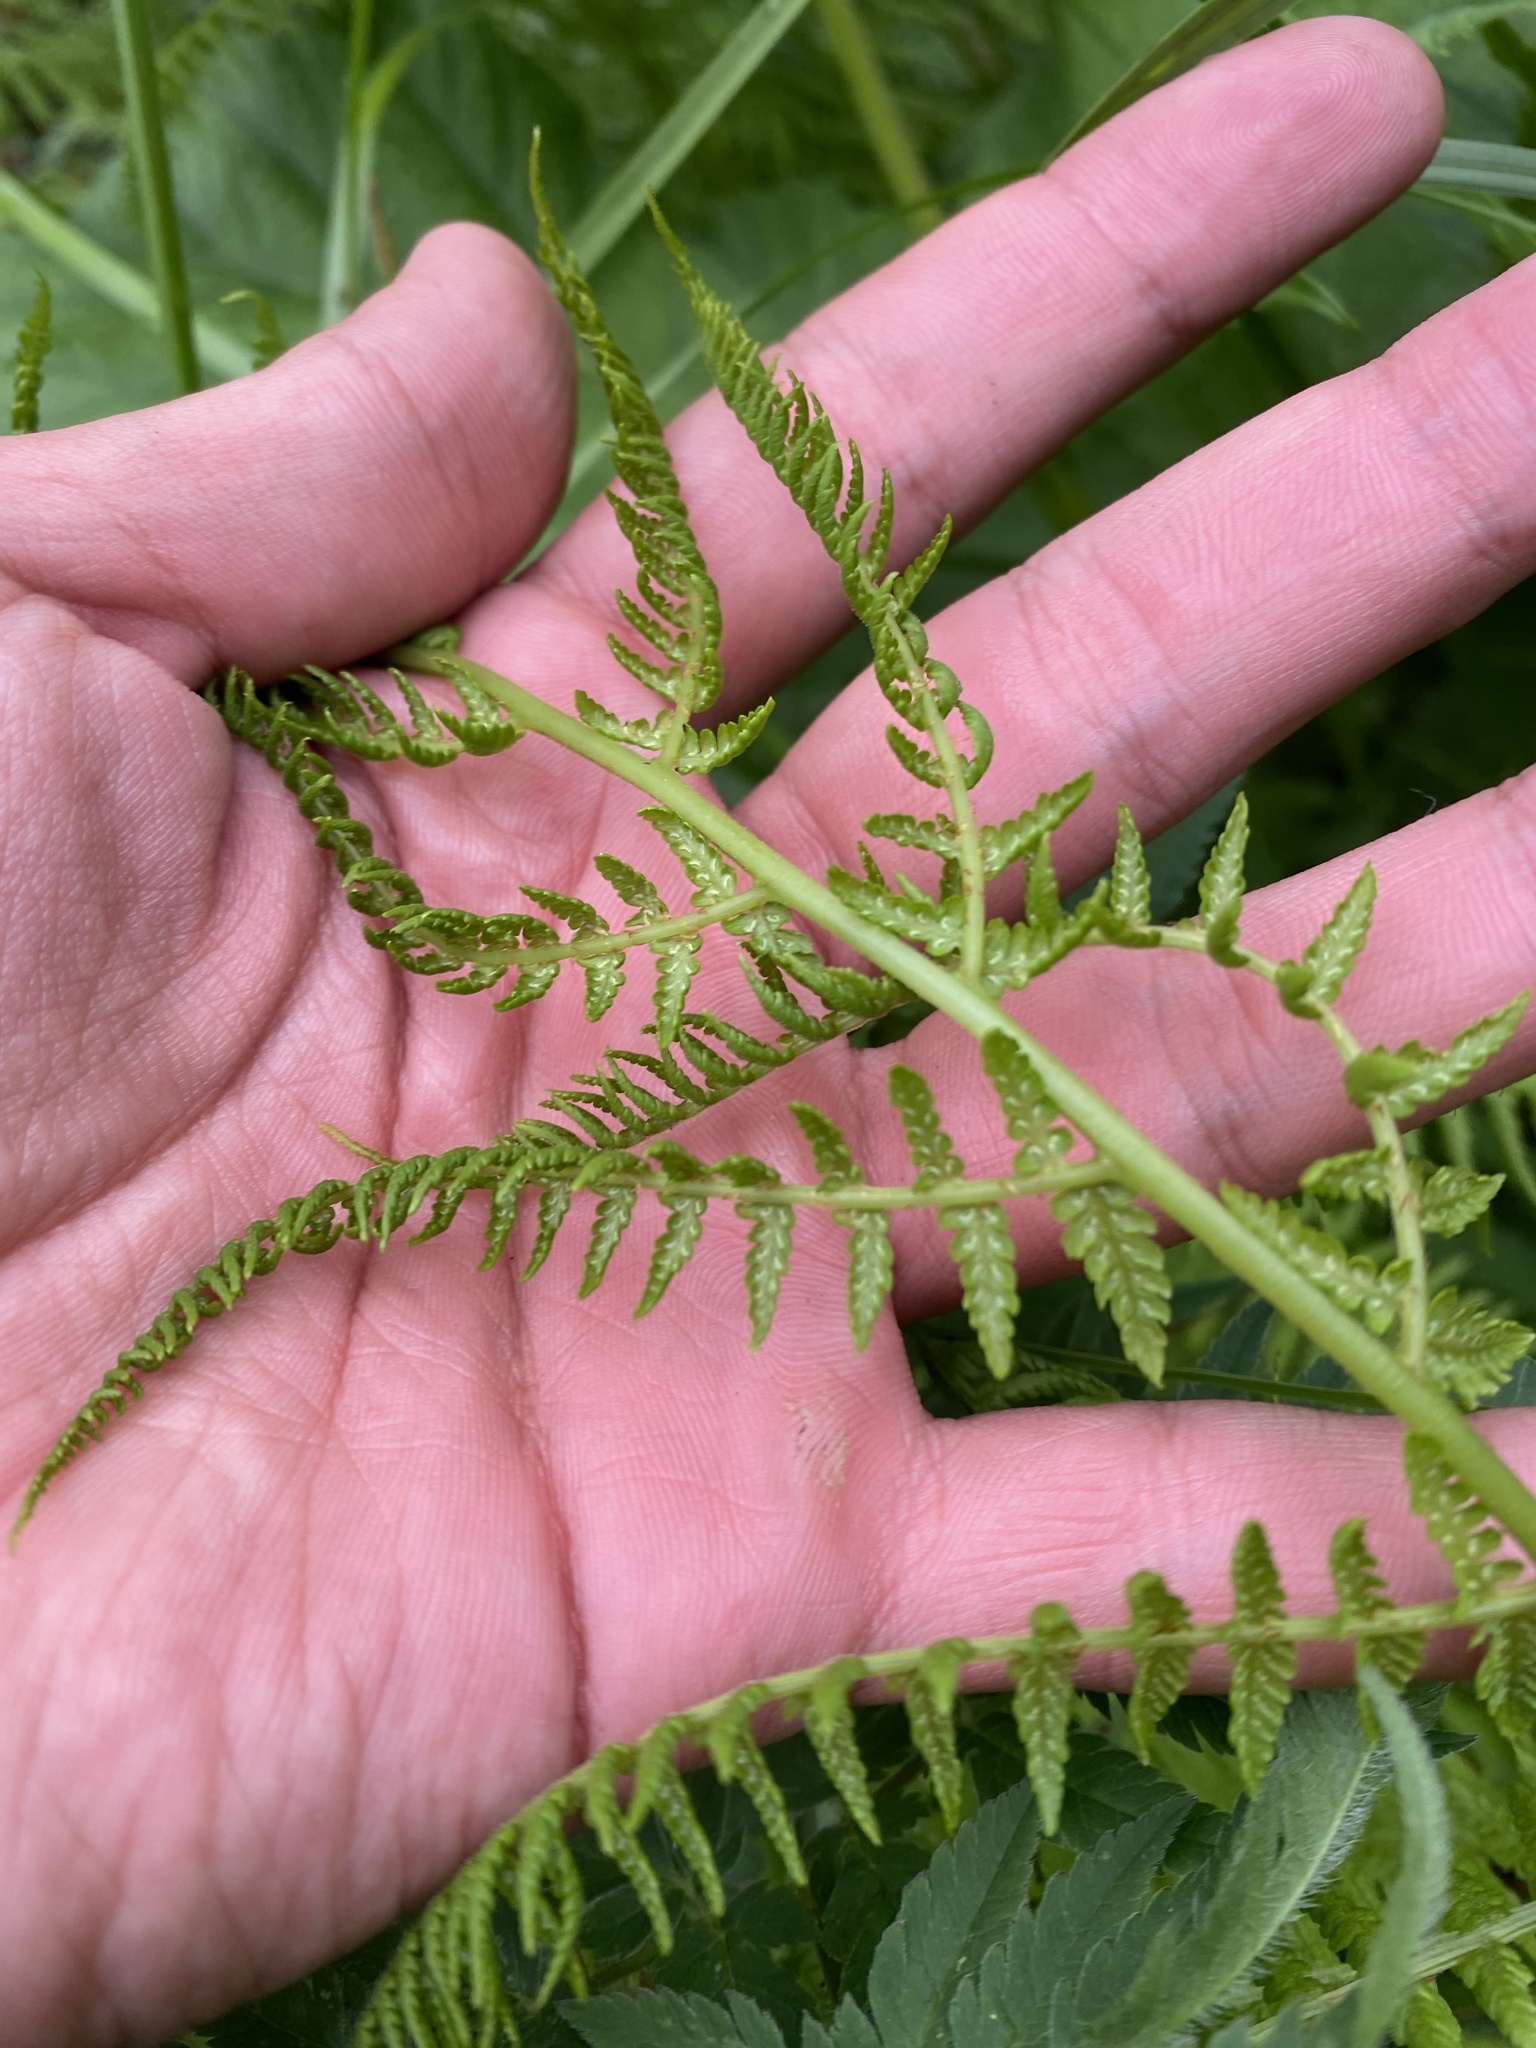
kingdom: Plantae
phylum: Tracheophyta
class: Polypodiopsida
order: Polypodiales
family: Athyriaceae
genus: Athyrium
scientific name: Athyrium filix-femina
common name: Lady fern
